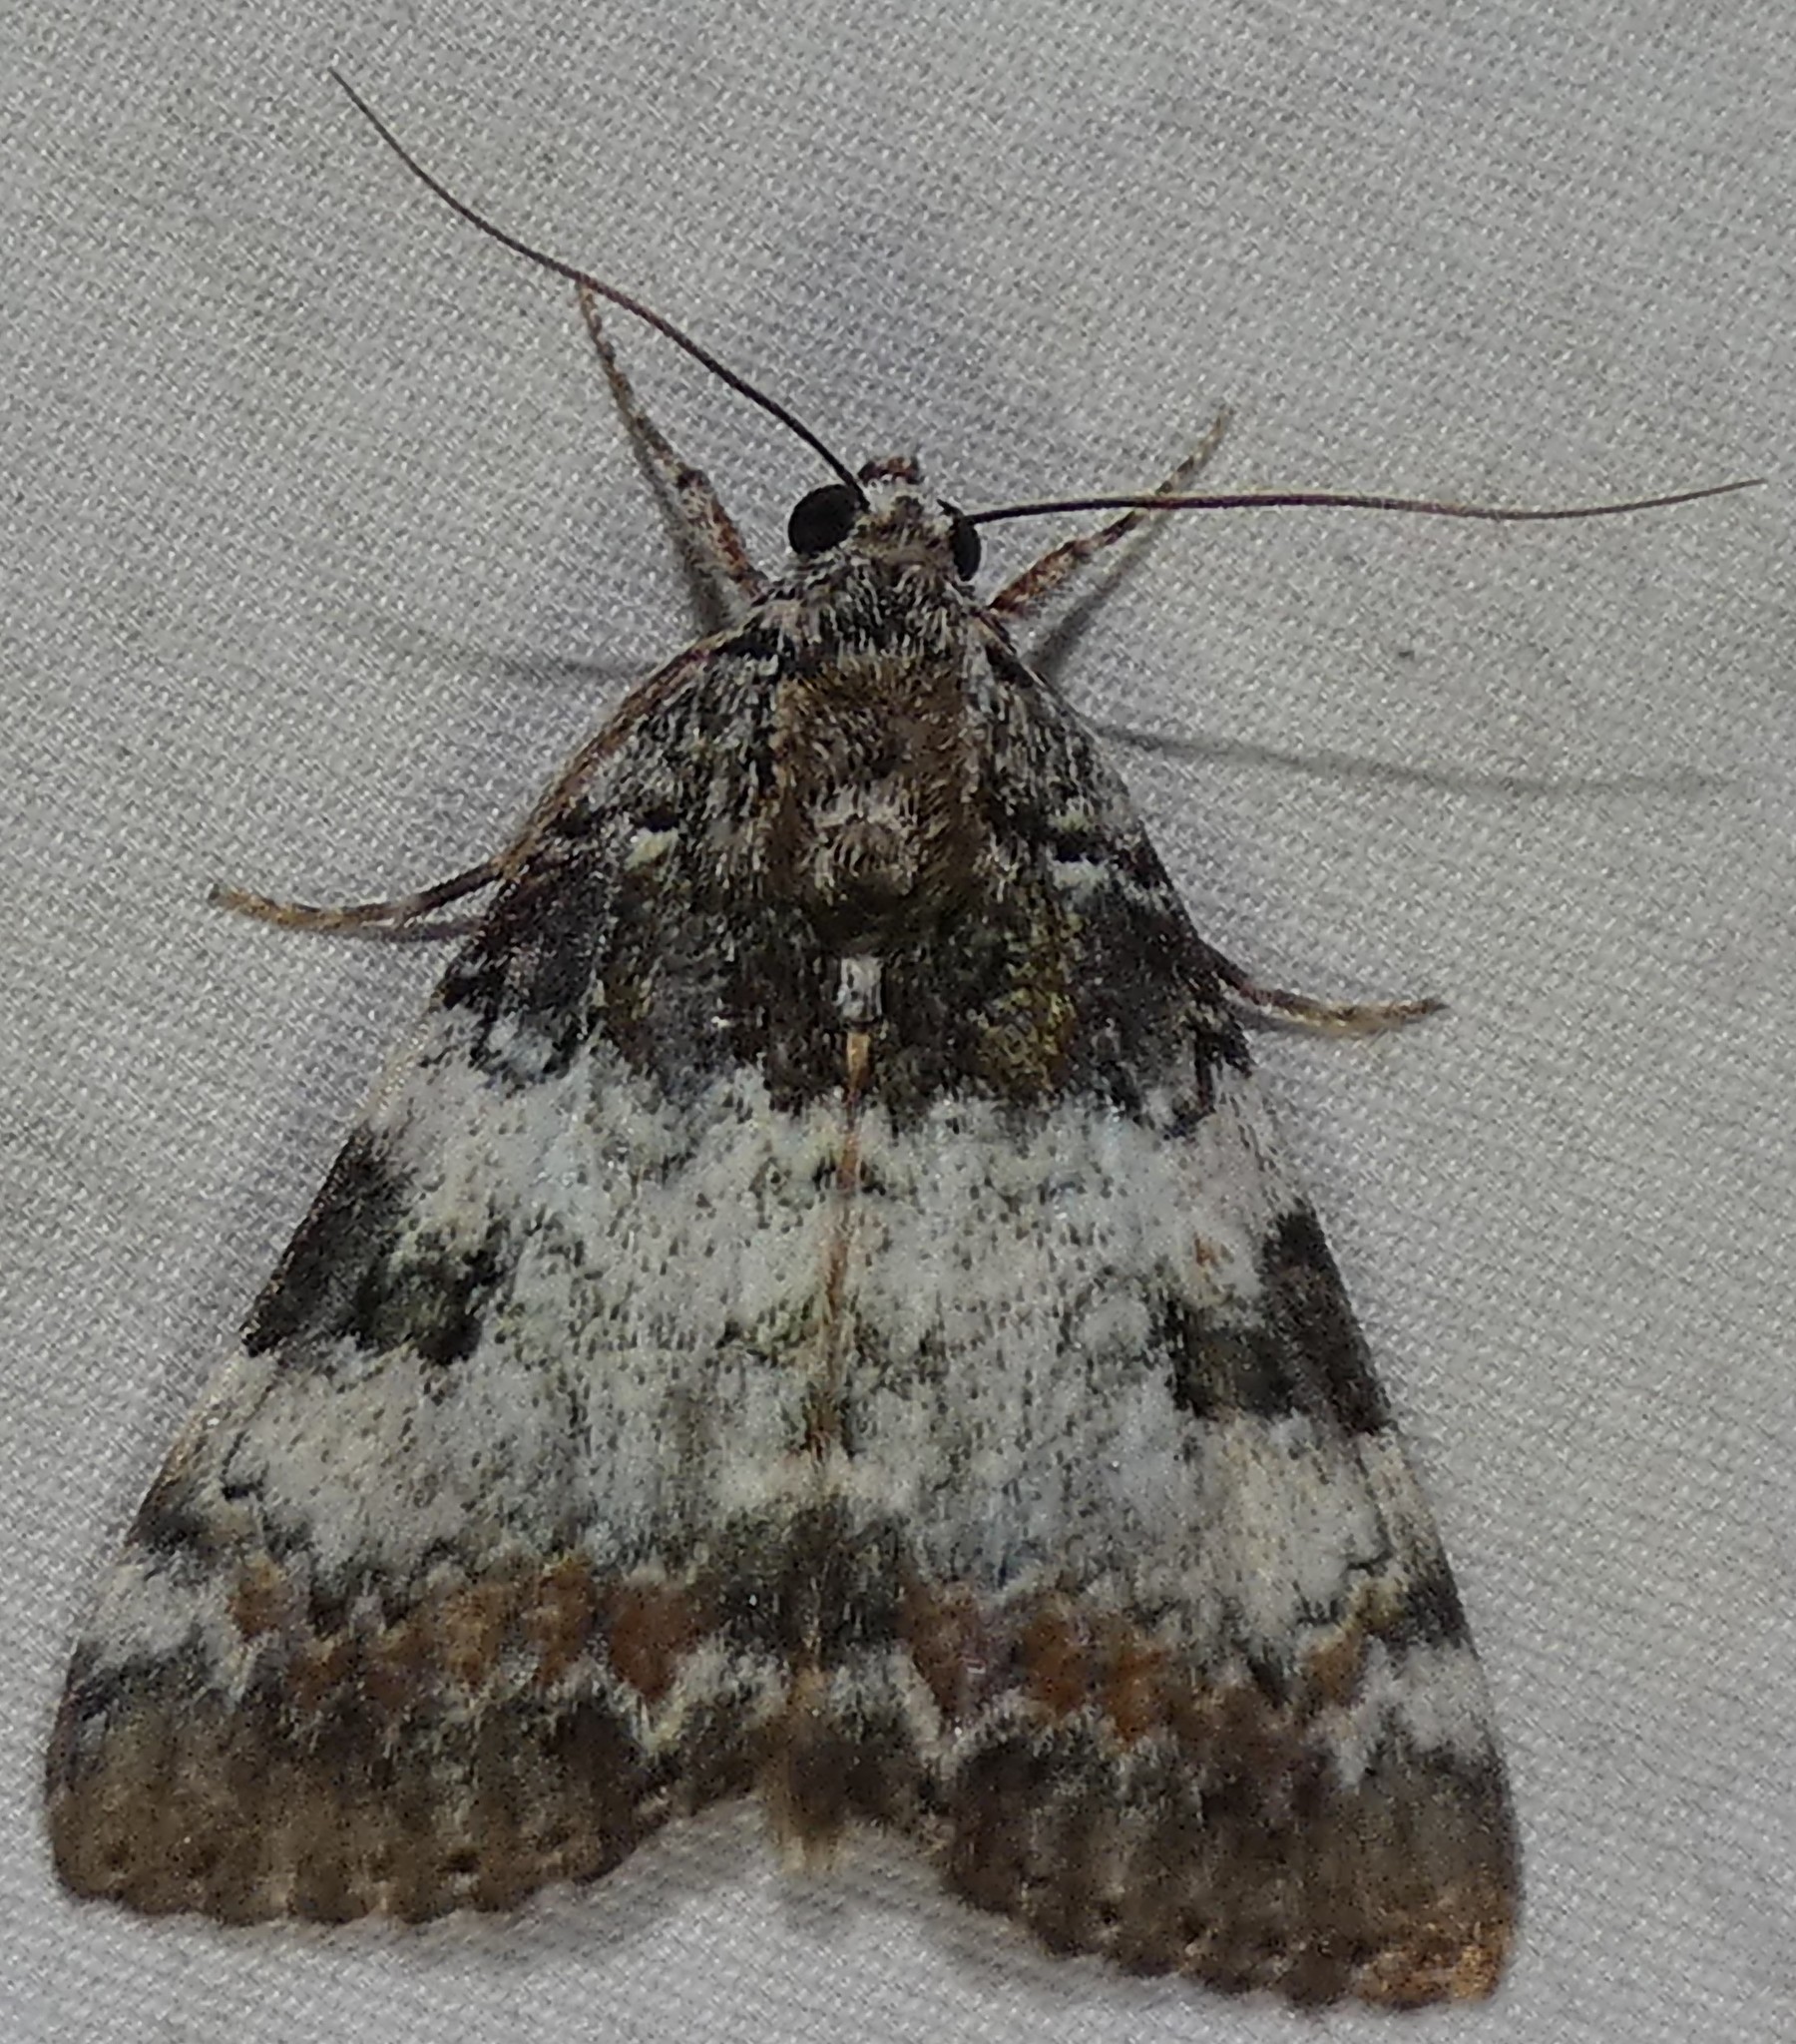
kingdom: Animalia
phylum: Arthropoda
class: Insecta
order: Lepidoptera
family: Erebidae
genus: Catocala
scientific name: Catocala connubialis
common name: Connubial underwing
